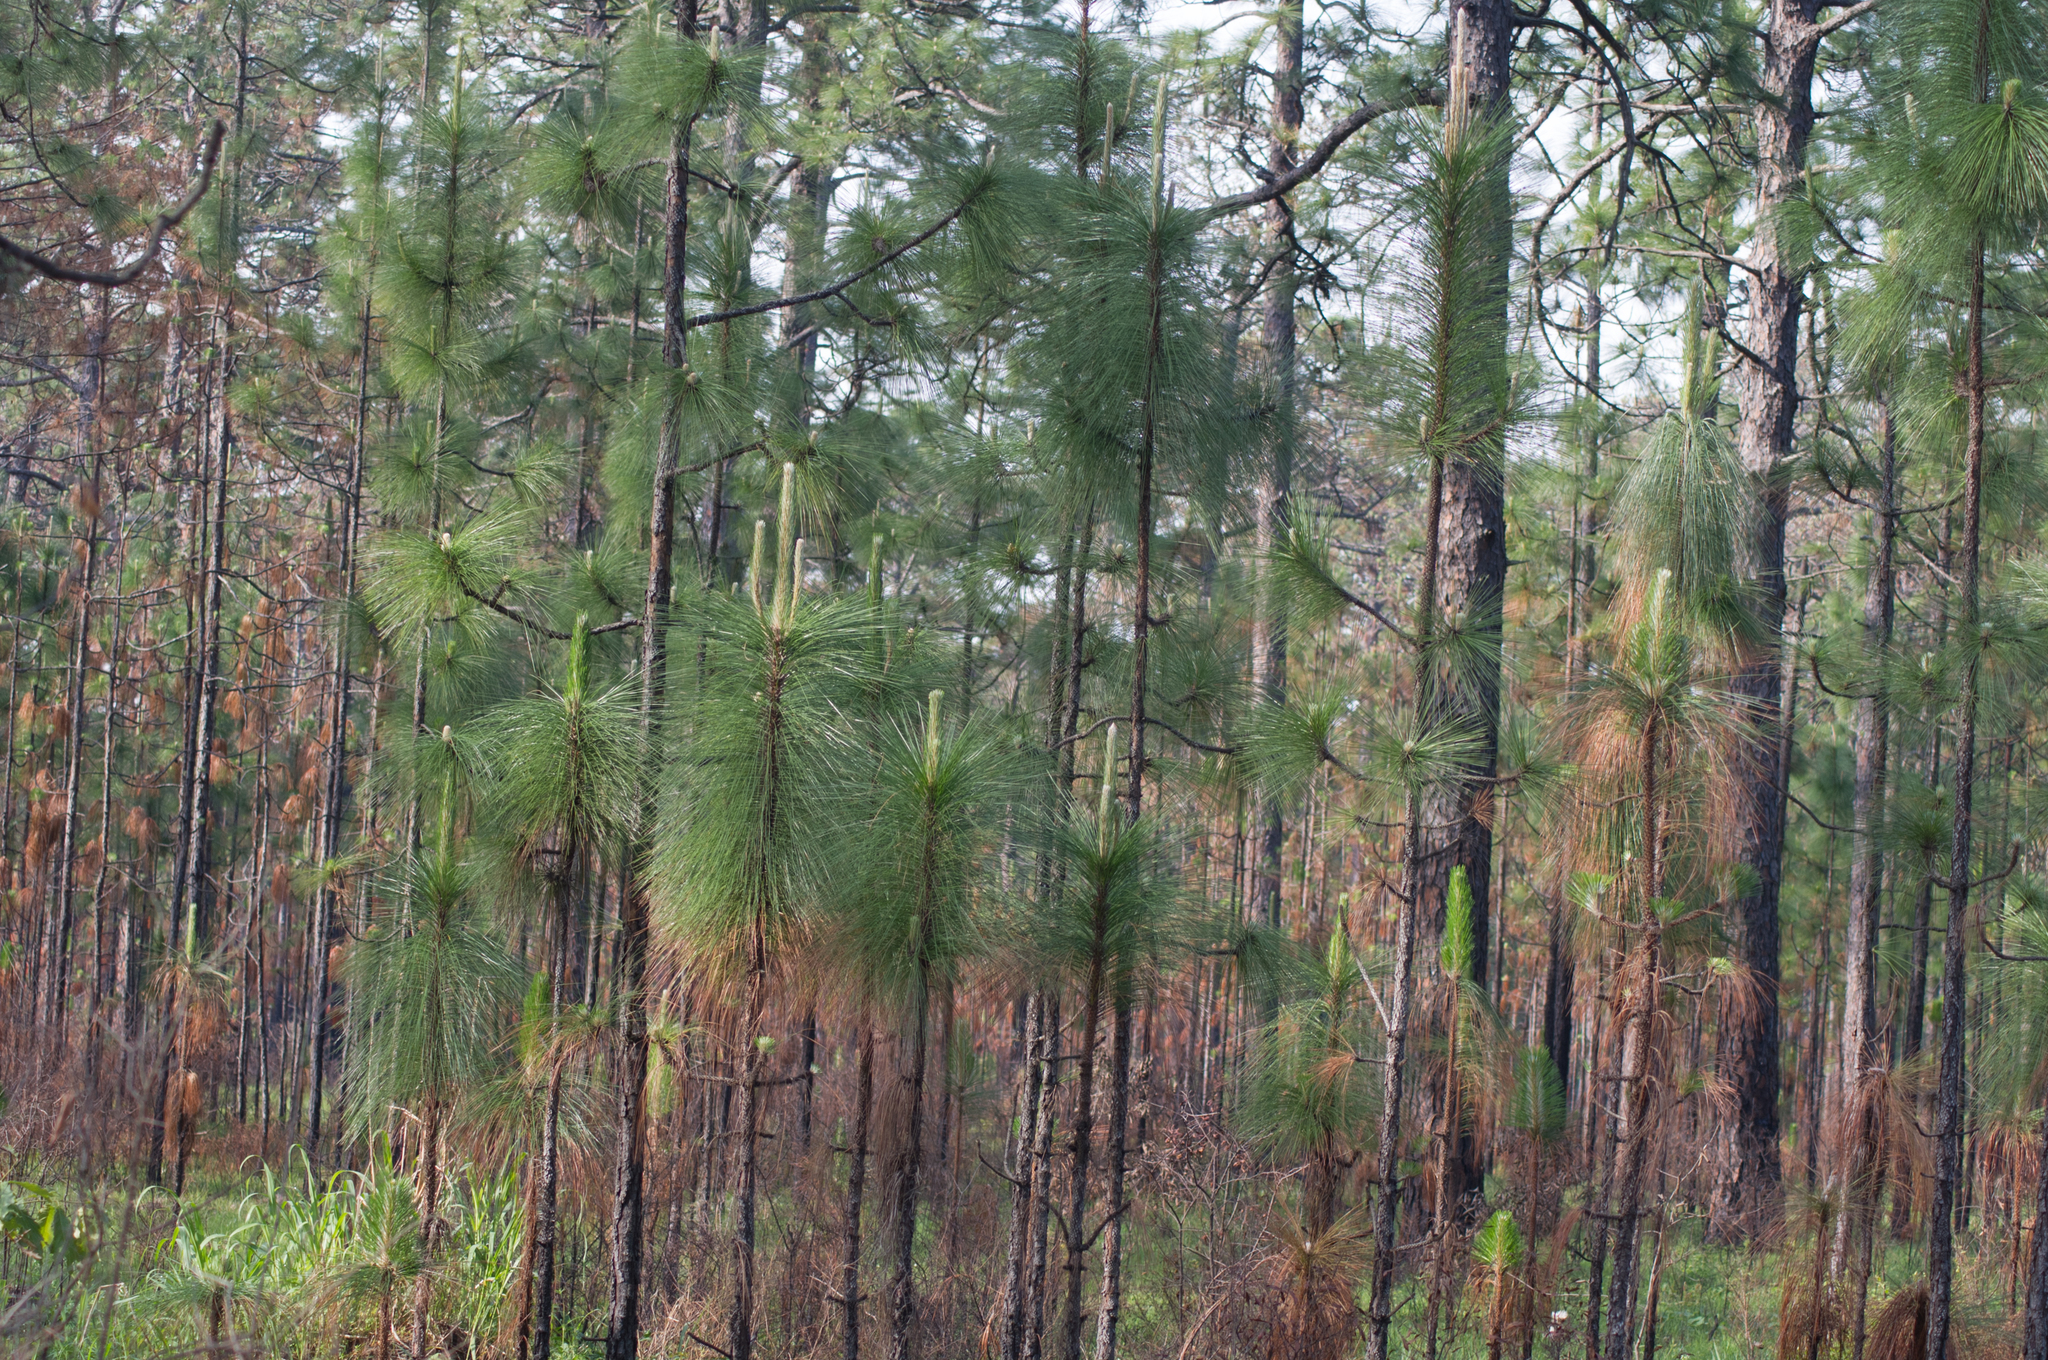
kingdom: Plantae
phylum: Tracheophyta
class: Pinopsida
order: Pinales
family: Pinaceae
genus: Pinus
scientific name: Pinus palustris
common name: Longleaf pine
